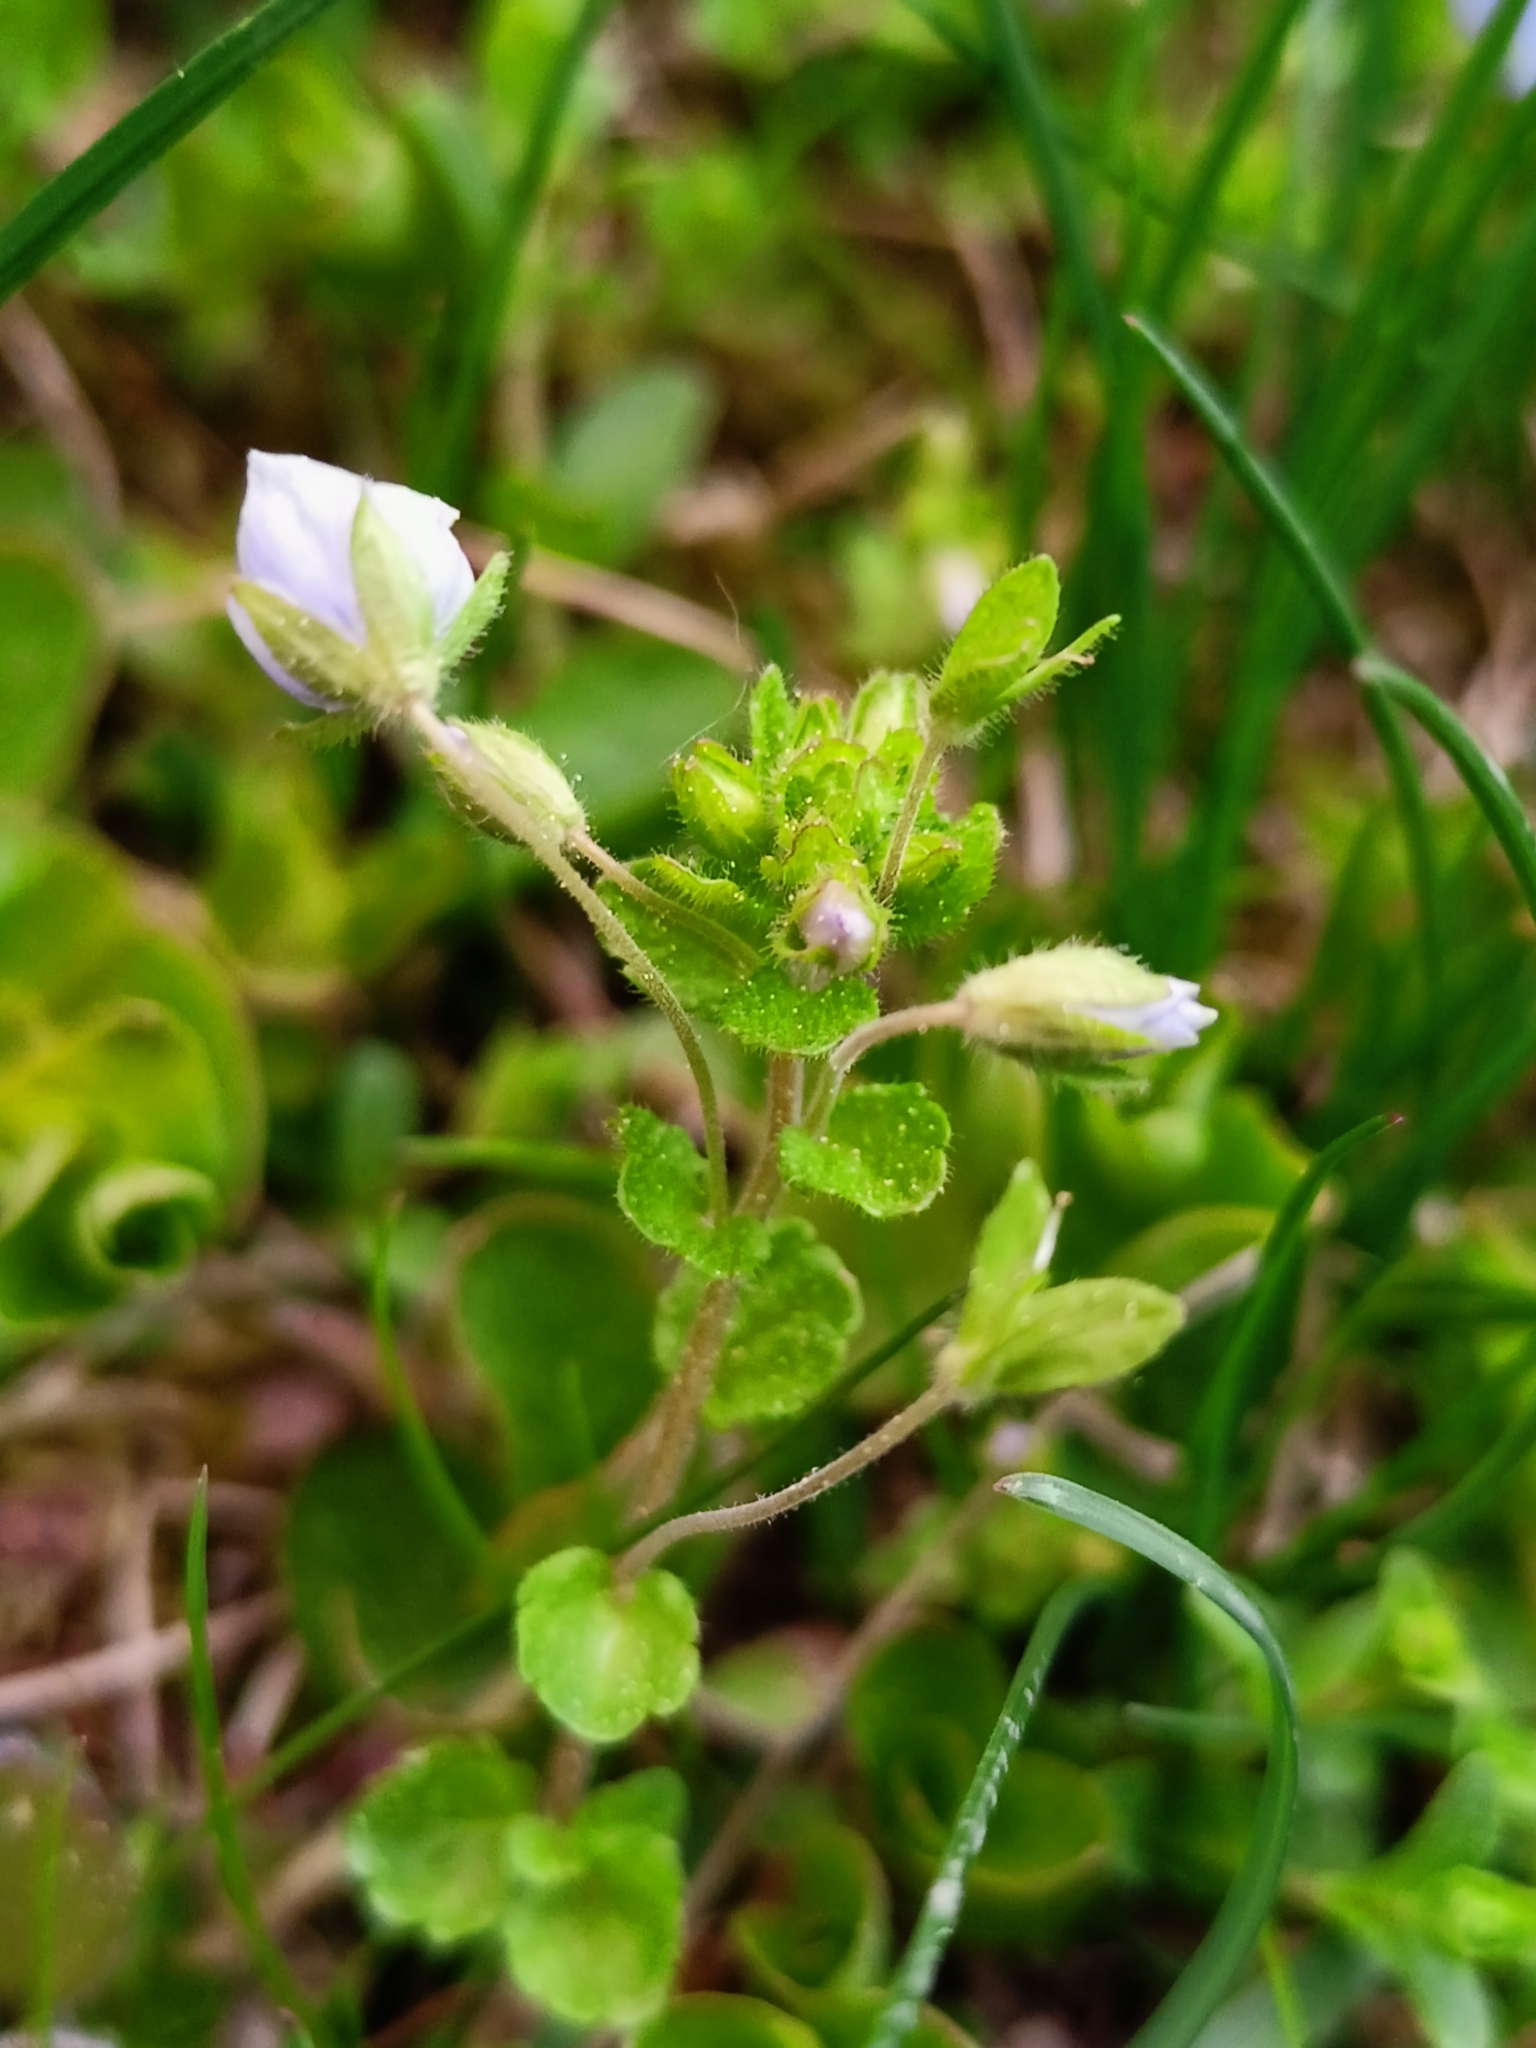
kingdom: Plantae
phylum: Tracheophyta
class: Magnoliopsida
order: Lamiales
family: Plantaginaceae
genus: Veronica
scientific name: Veronica filiformis
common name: Slender speedwell
